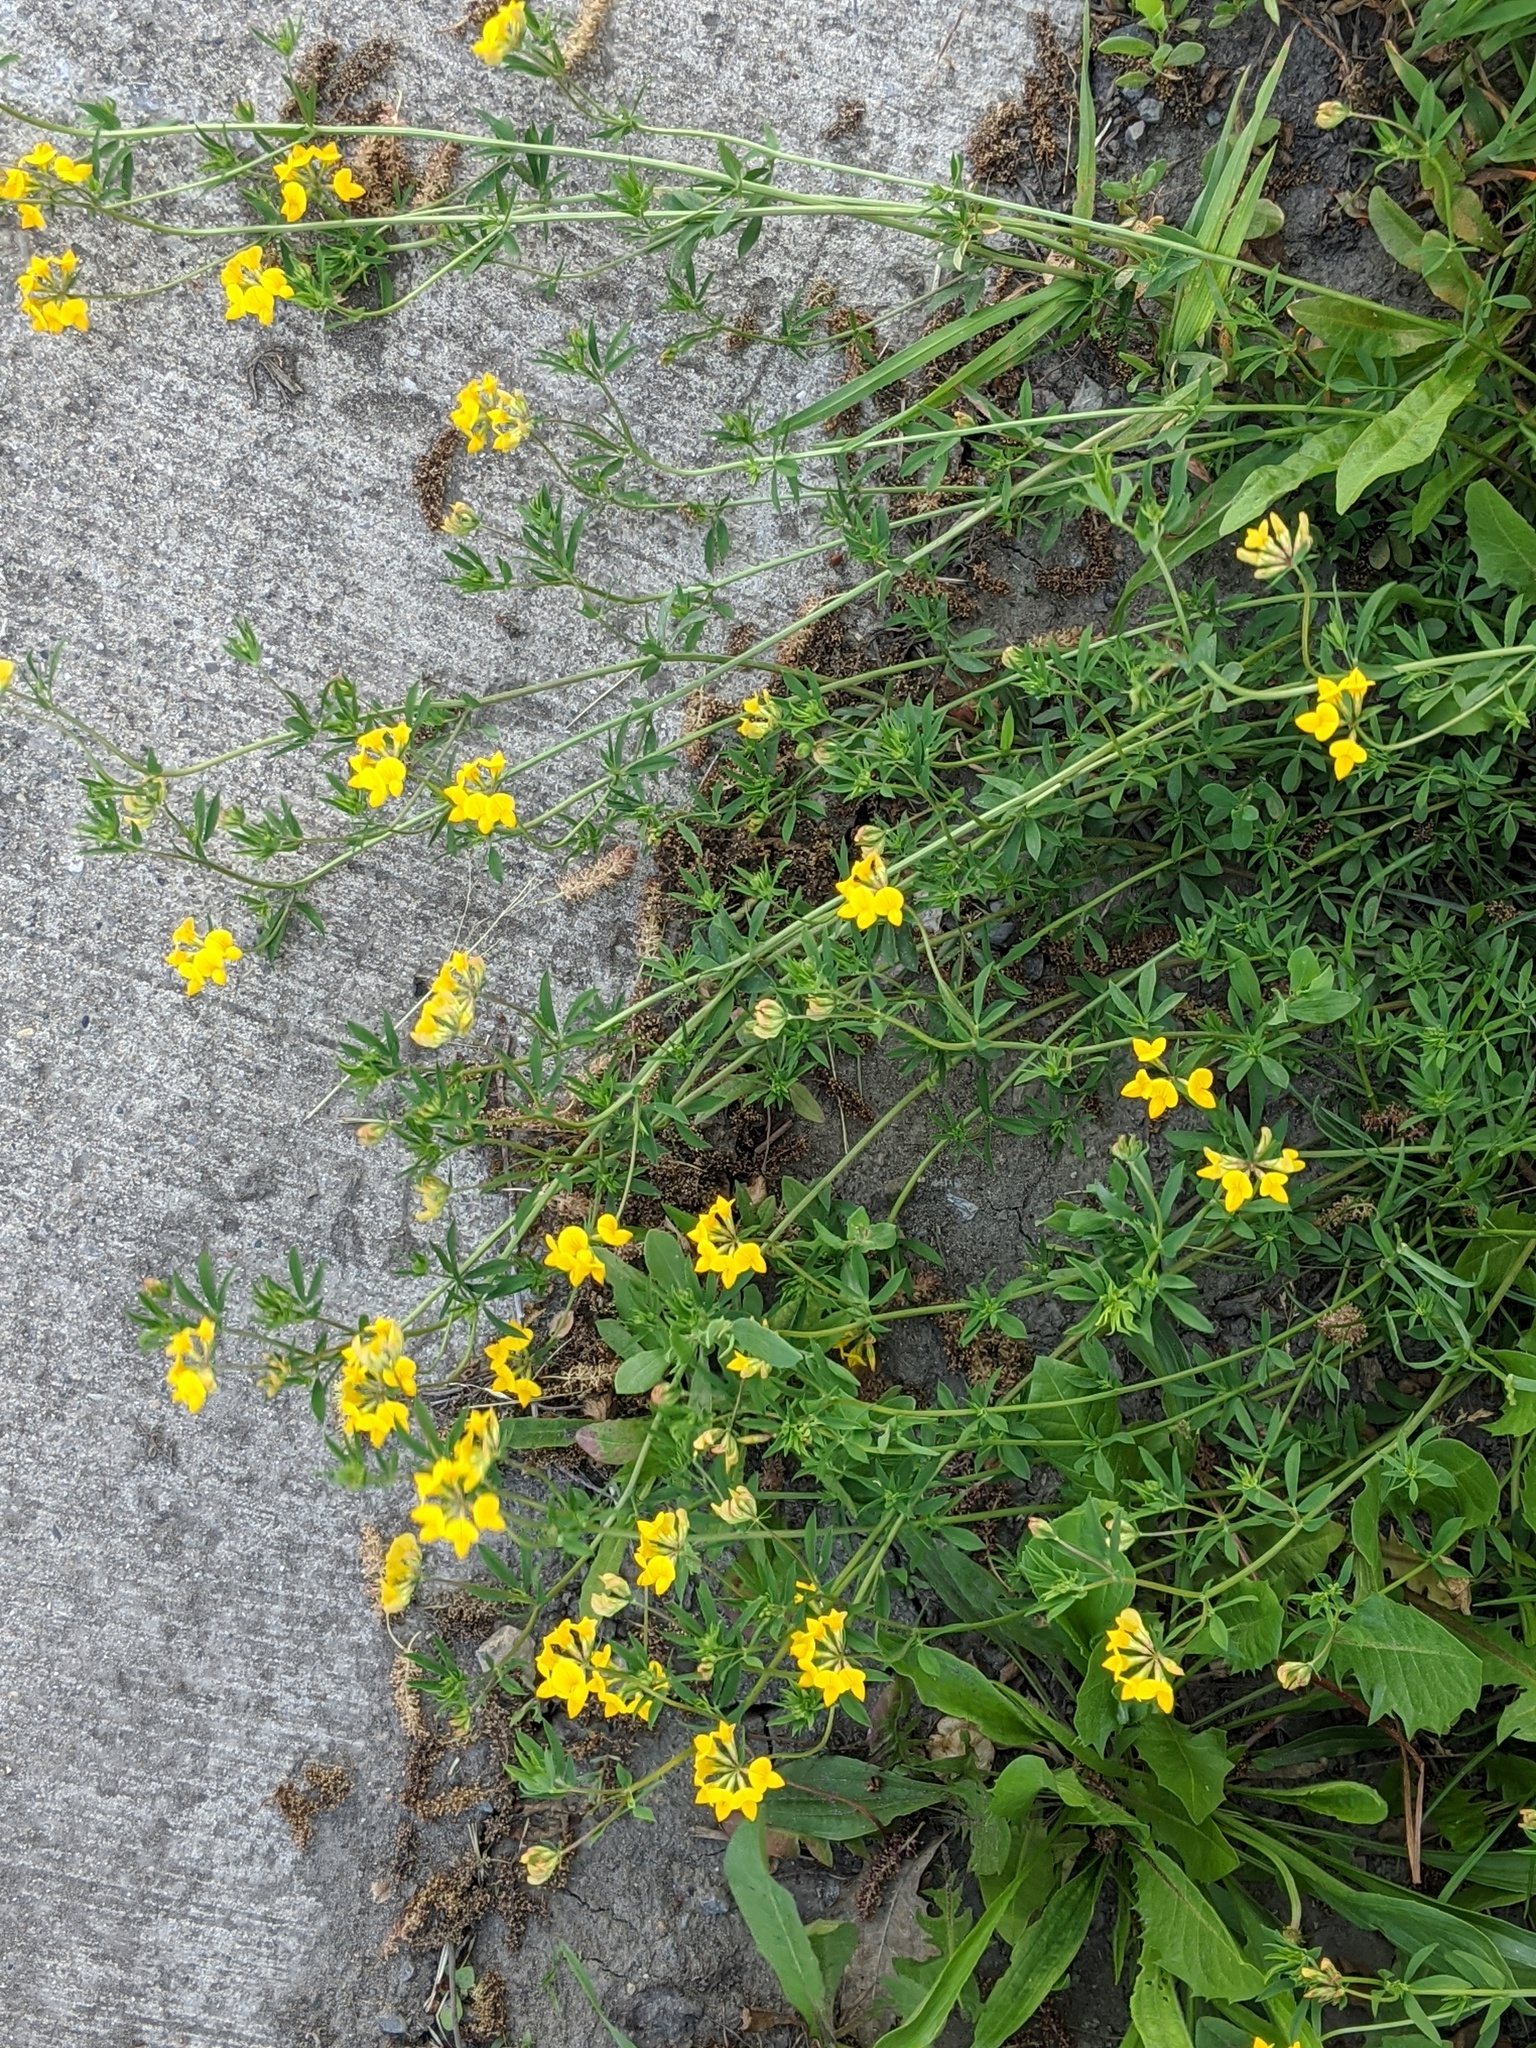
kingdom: Plantae
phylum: Tracheophyta
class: Magnoliopsida
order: Fabales
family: Fabaceae
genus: Lotus
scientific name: Lotus corniculatus
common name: Common bird's-foot-trefoil
